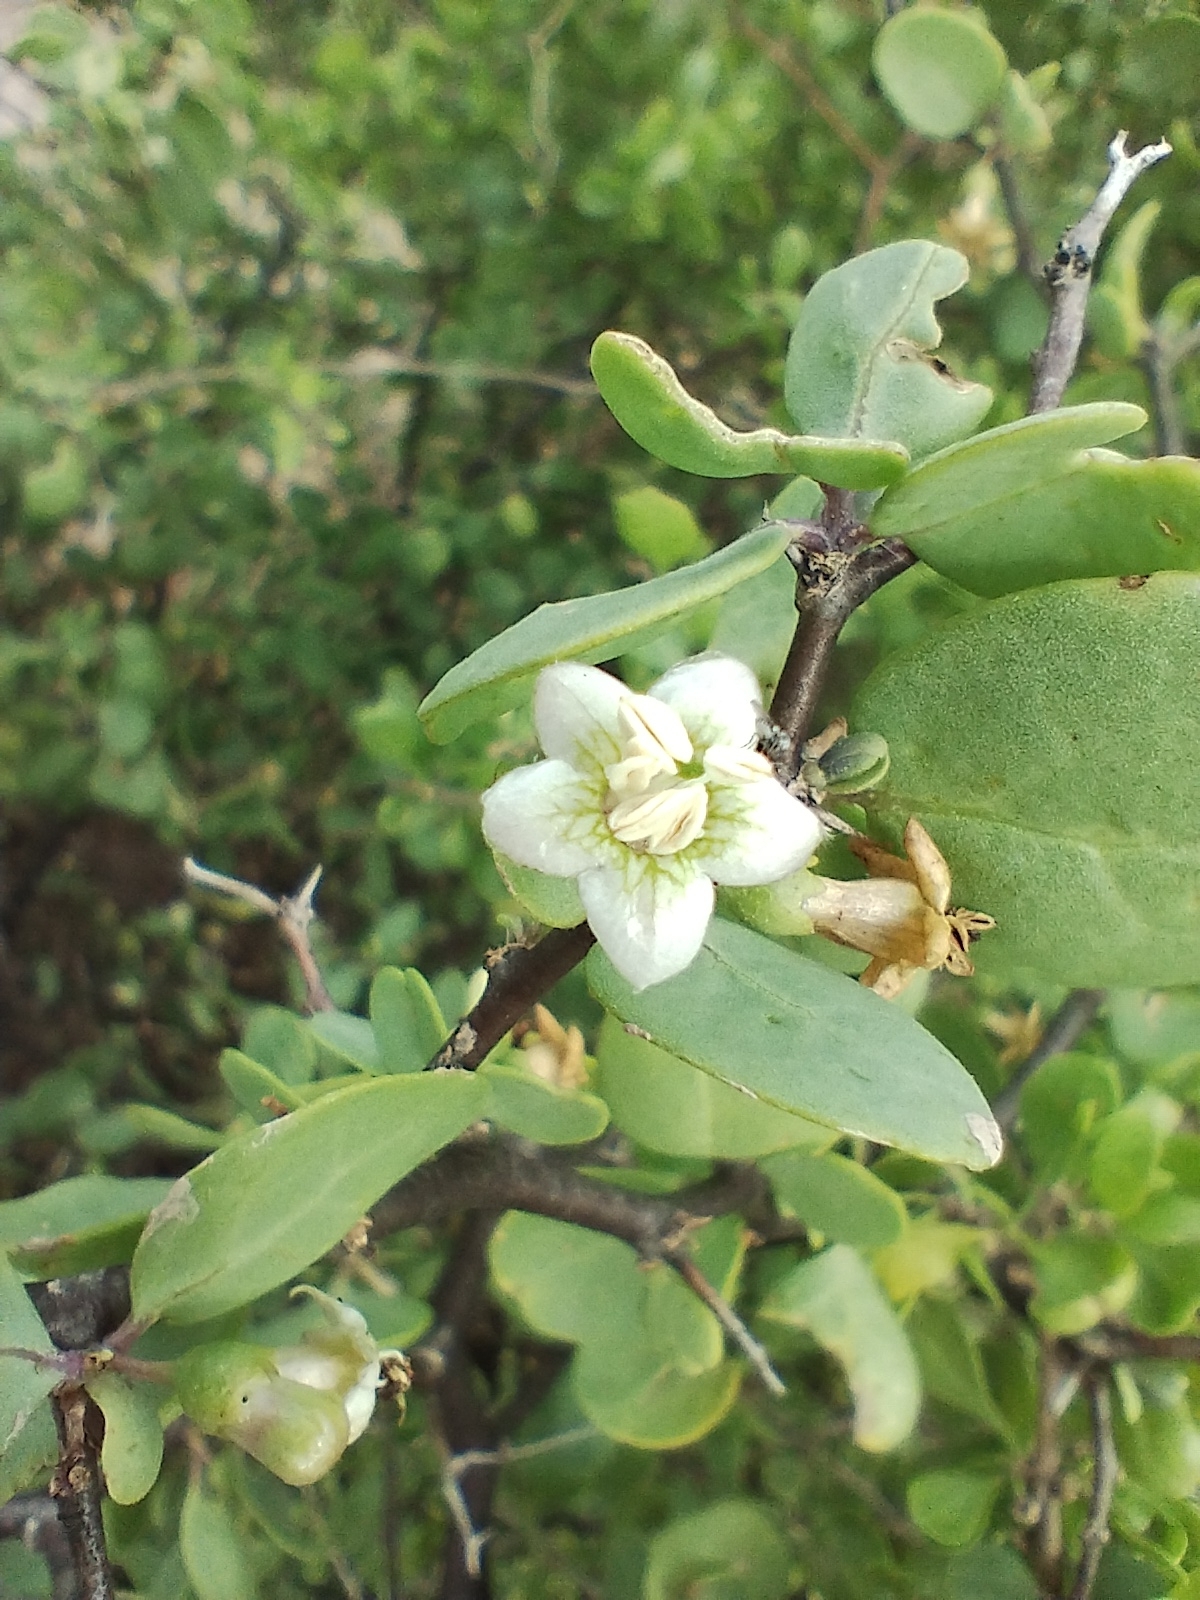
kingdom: Plantae
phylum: Tracheophyta
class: Magnoliopsida
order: Solanales
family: Solanaceae
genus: Lycium
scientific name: Lycium boerhaaviifolium
